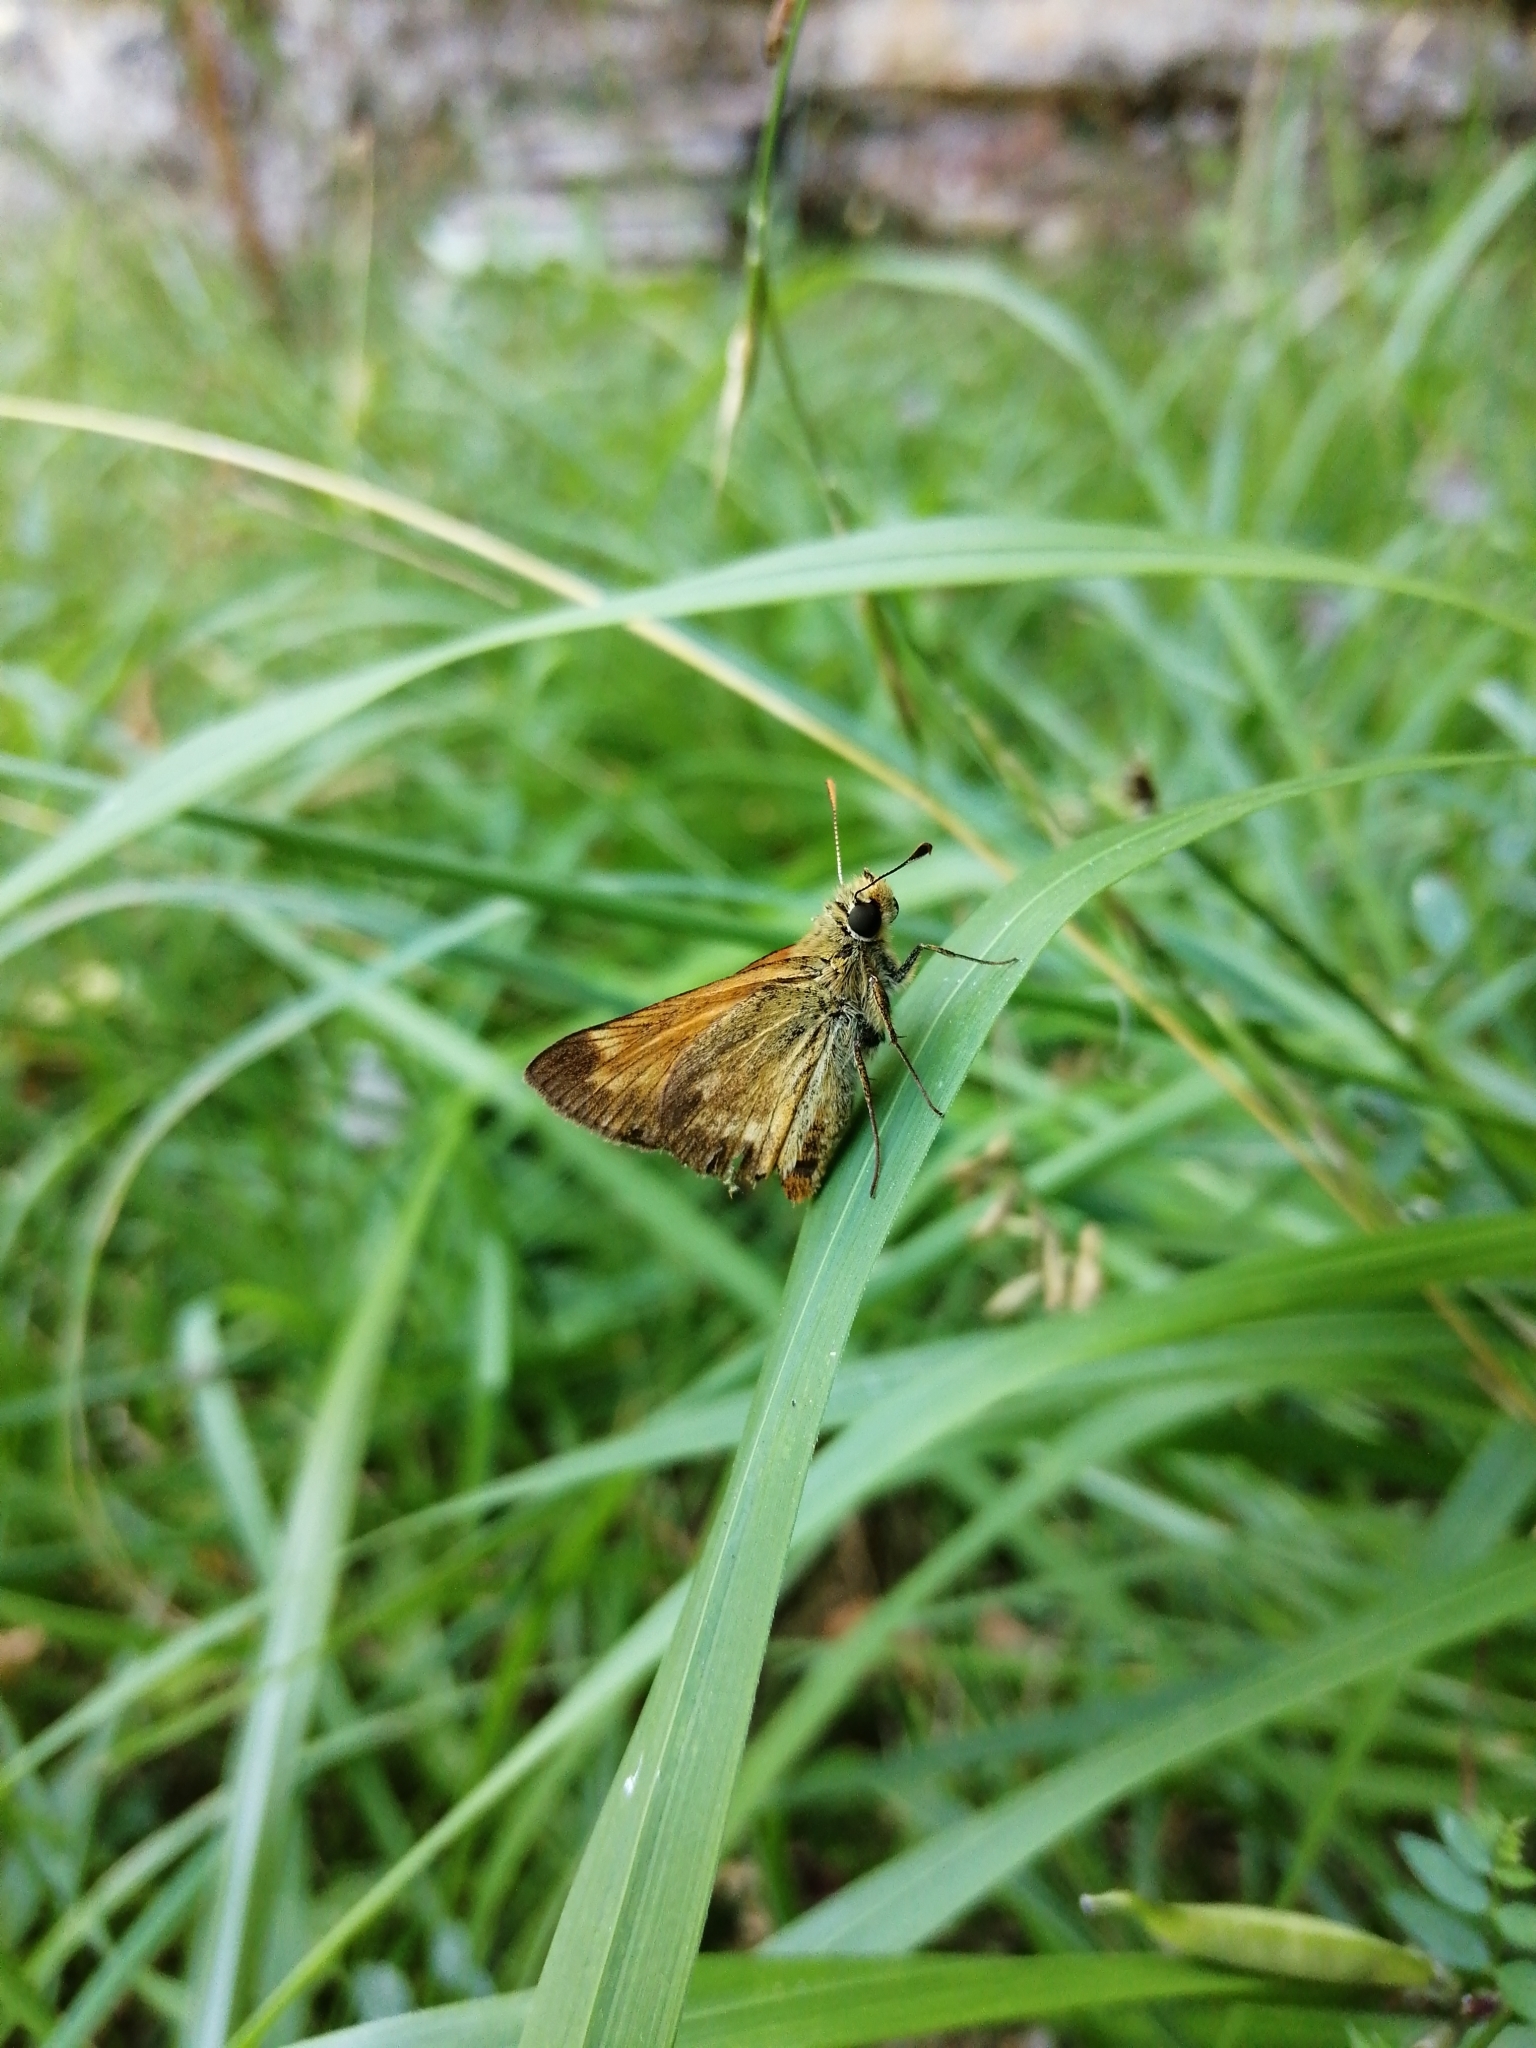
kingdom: Animalia
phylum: Arthropoda
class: Insecta
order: Lepidoptera
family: Hesperiidae
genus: Ochlodes
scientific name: Ochlodes venata
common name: Large skipper
